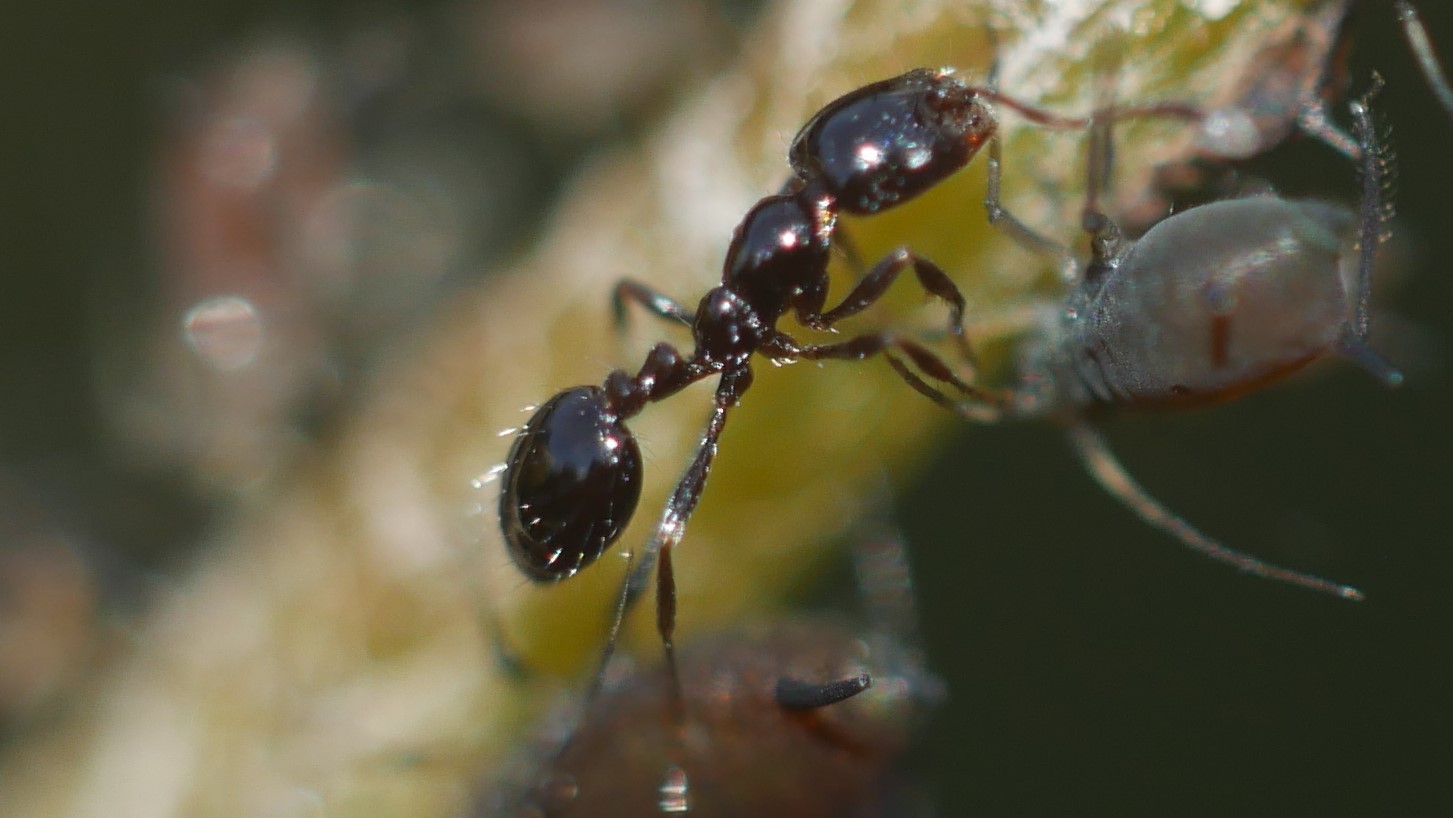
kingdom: Animalia
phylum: Arthropoda
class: Insecta
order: Hymenoptera
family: Formicidae
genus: Monomorium
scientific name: Monomorium minimum
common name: Little black ant
